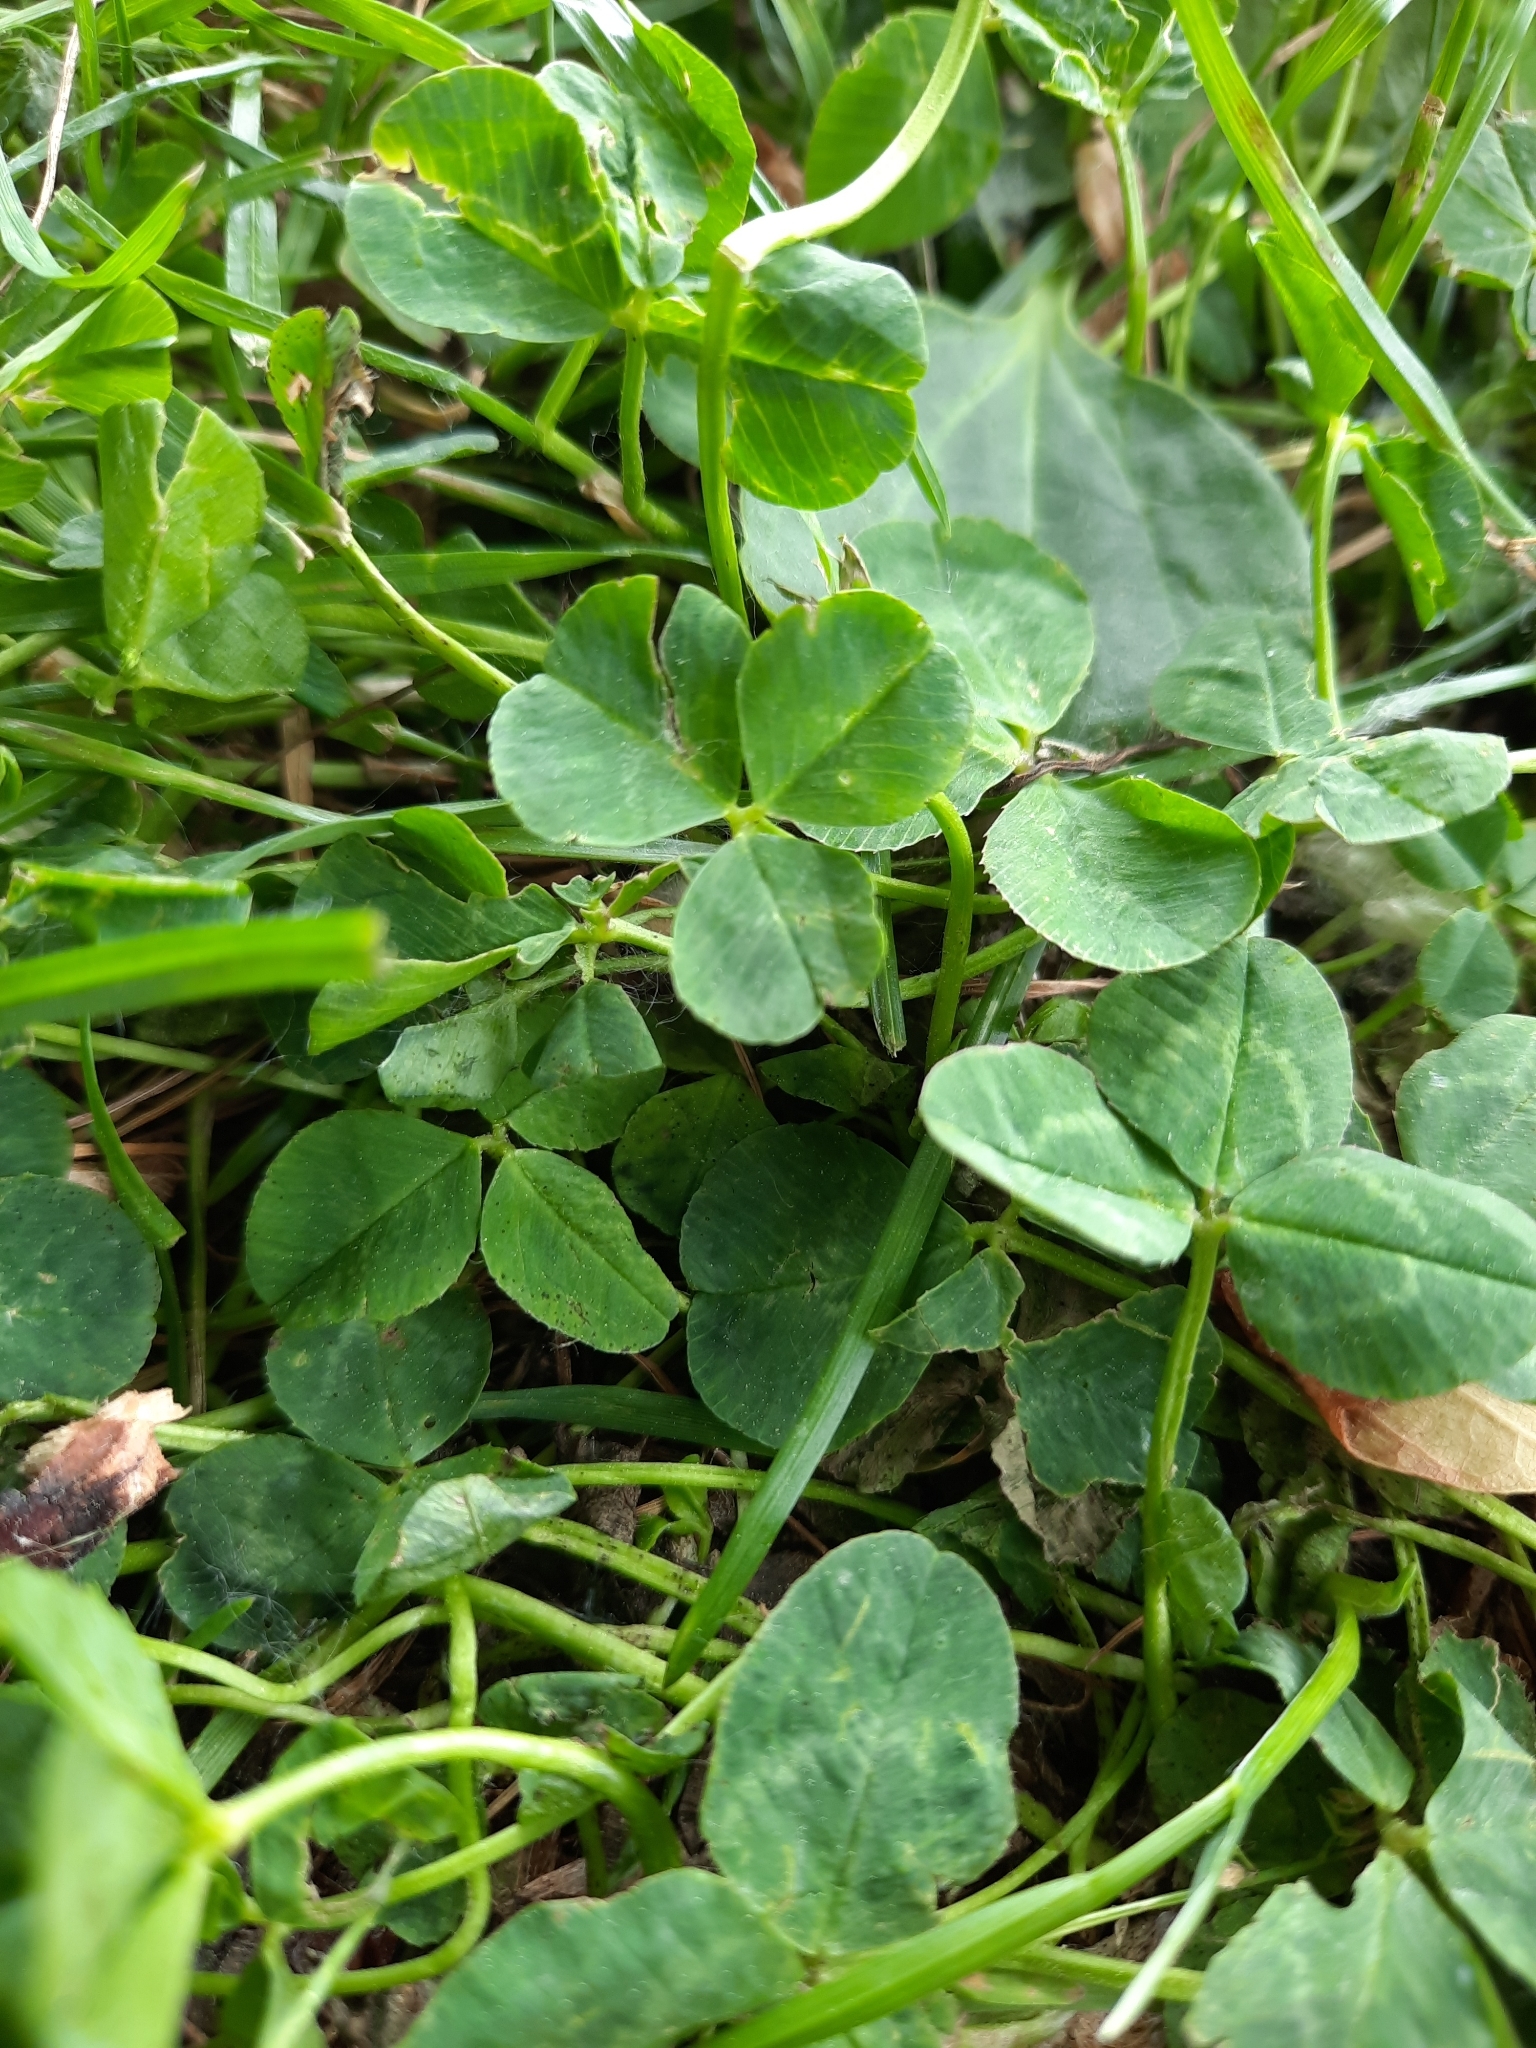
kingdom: Plantae
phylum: Tracheophyta
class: Magnoliopsida
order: Fabales
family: Fabaceae
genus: Trifolium
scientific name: Trifolium repens
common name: White clover
